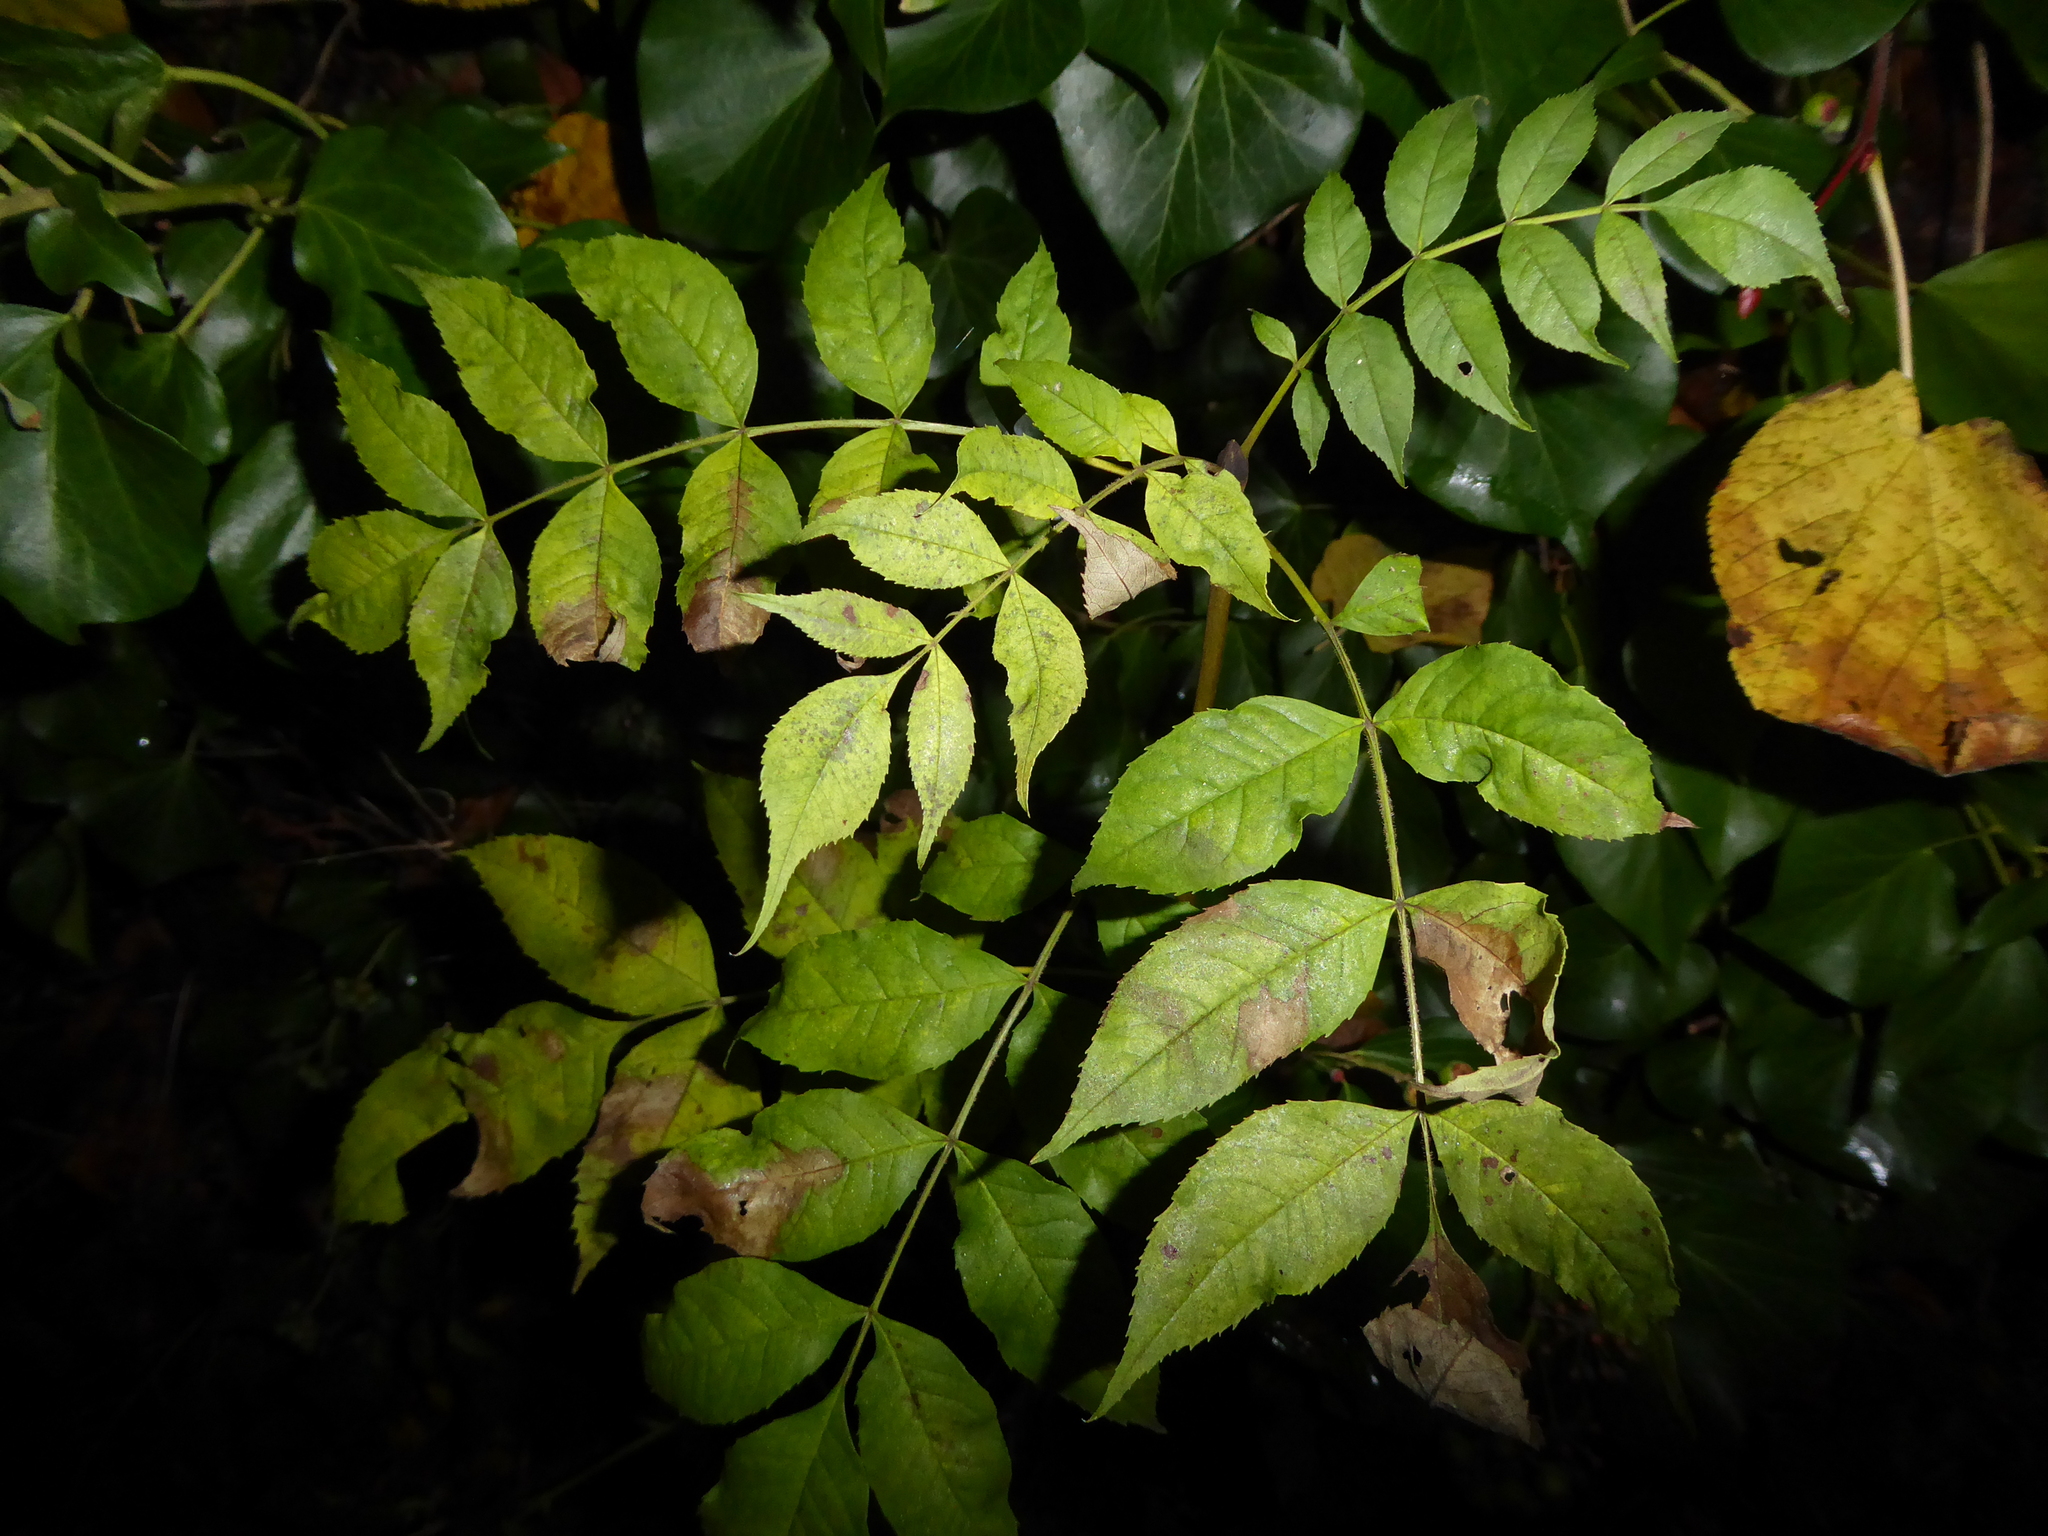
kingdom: Plantae
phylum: Tracheophyta
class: Magnoliopsida
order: Lamiales
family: Oleaceae
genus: Fraxinus
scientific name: Fraxinus excelsior
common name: European ash
